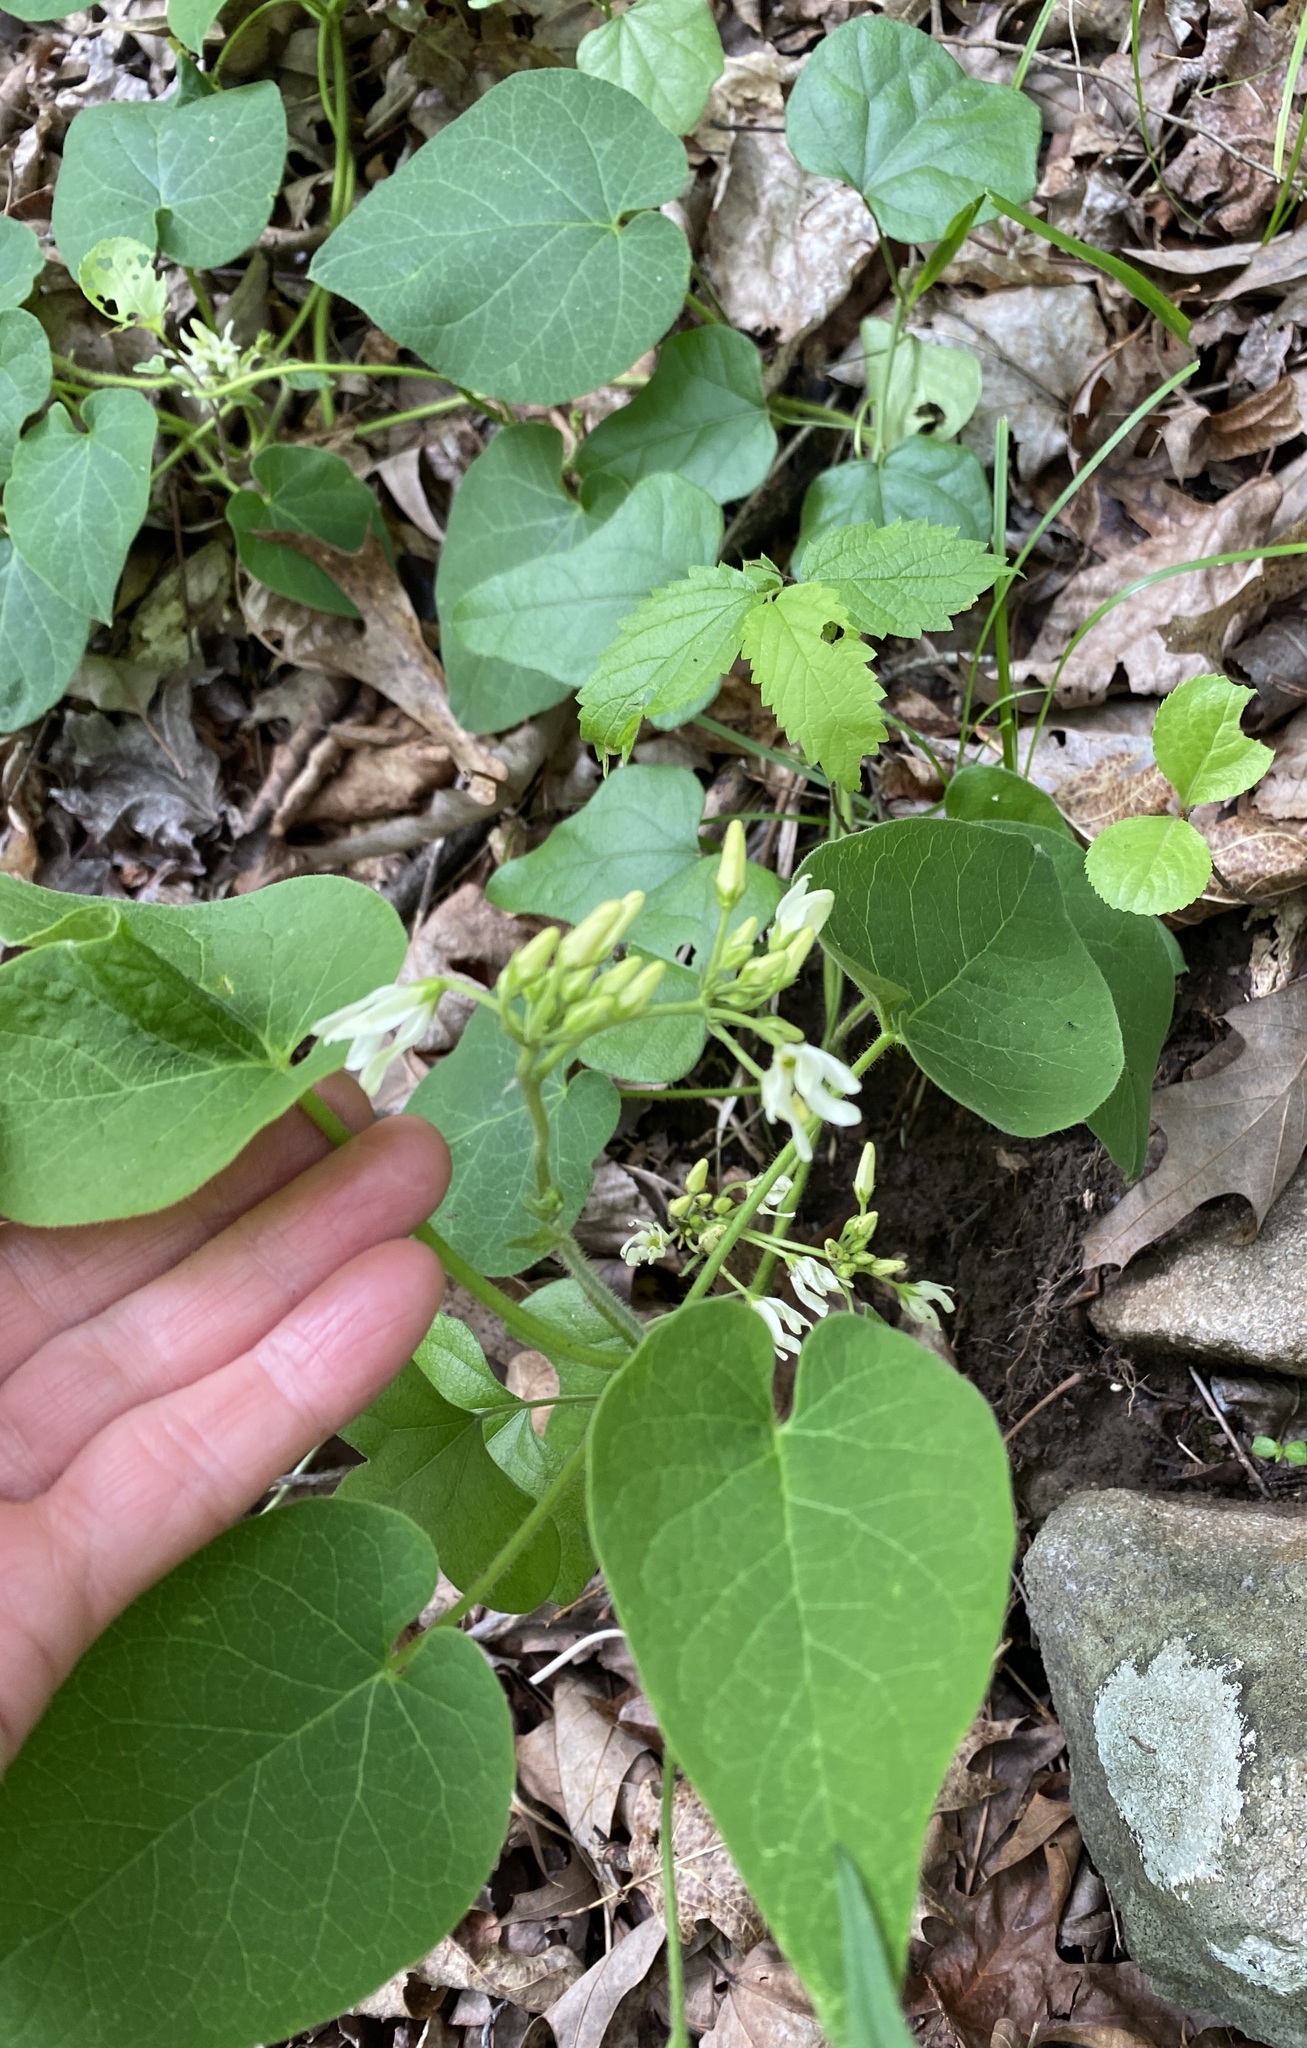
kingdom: Plantae
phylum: Tracheophyta
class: Magnoliopsida
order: Gentianales
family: Apocynaceae
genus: Matelea
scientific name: Matelea baldwyniana
